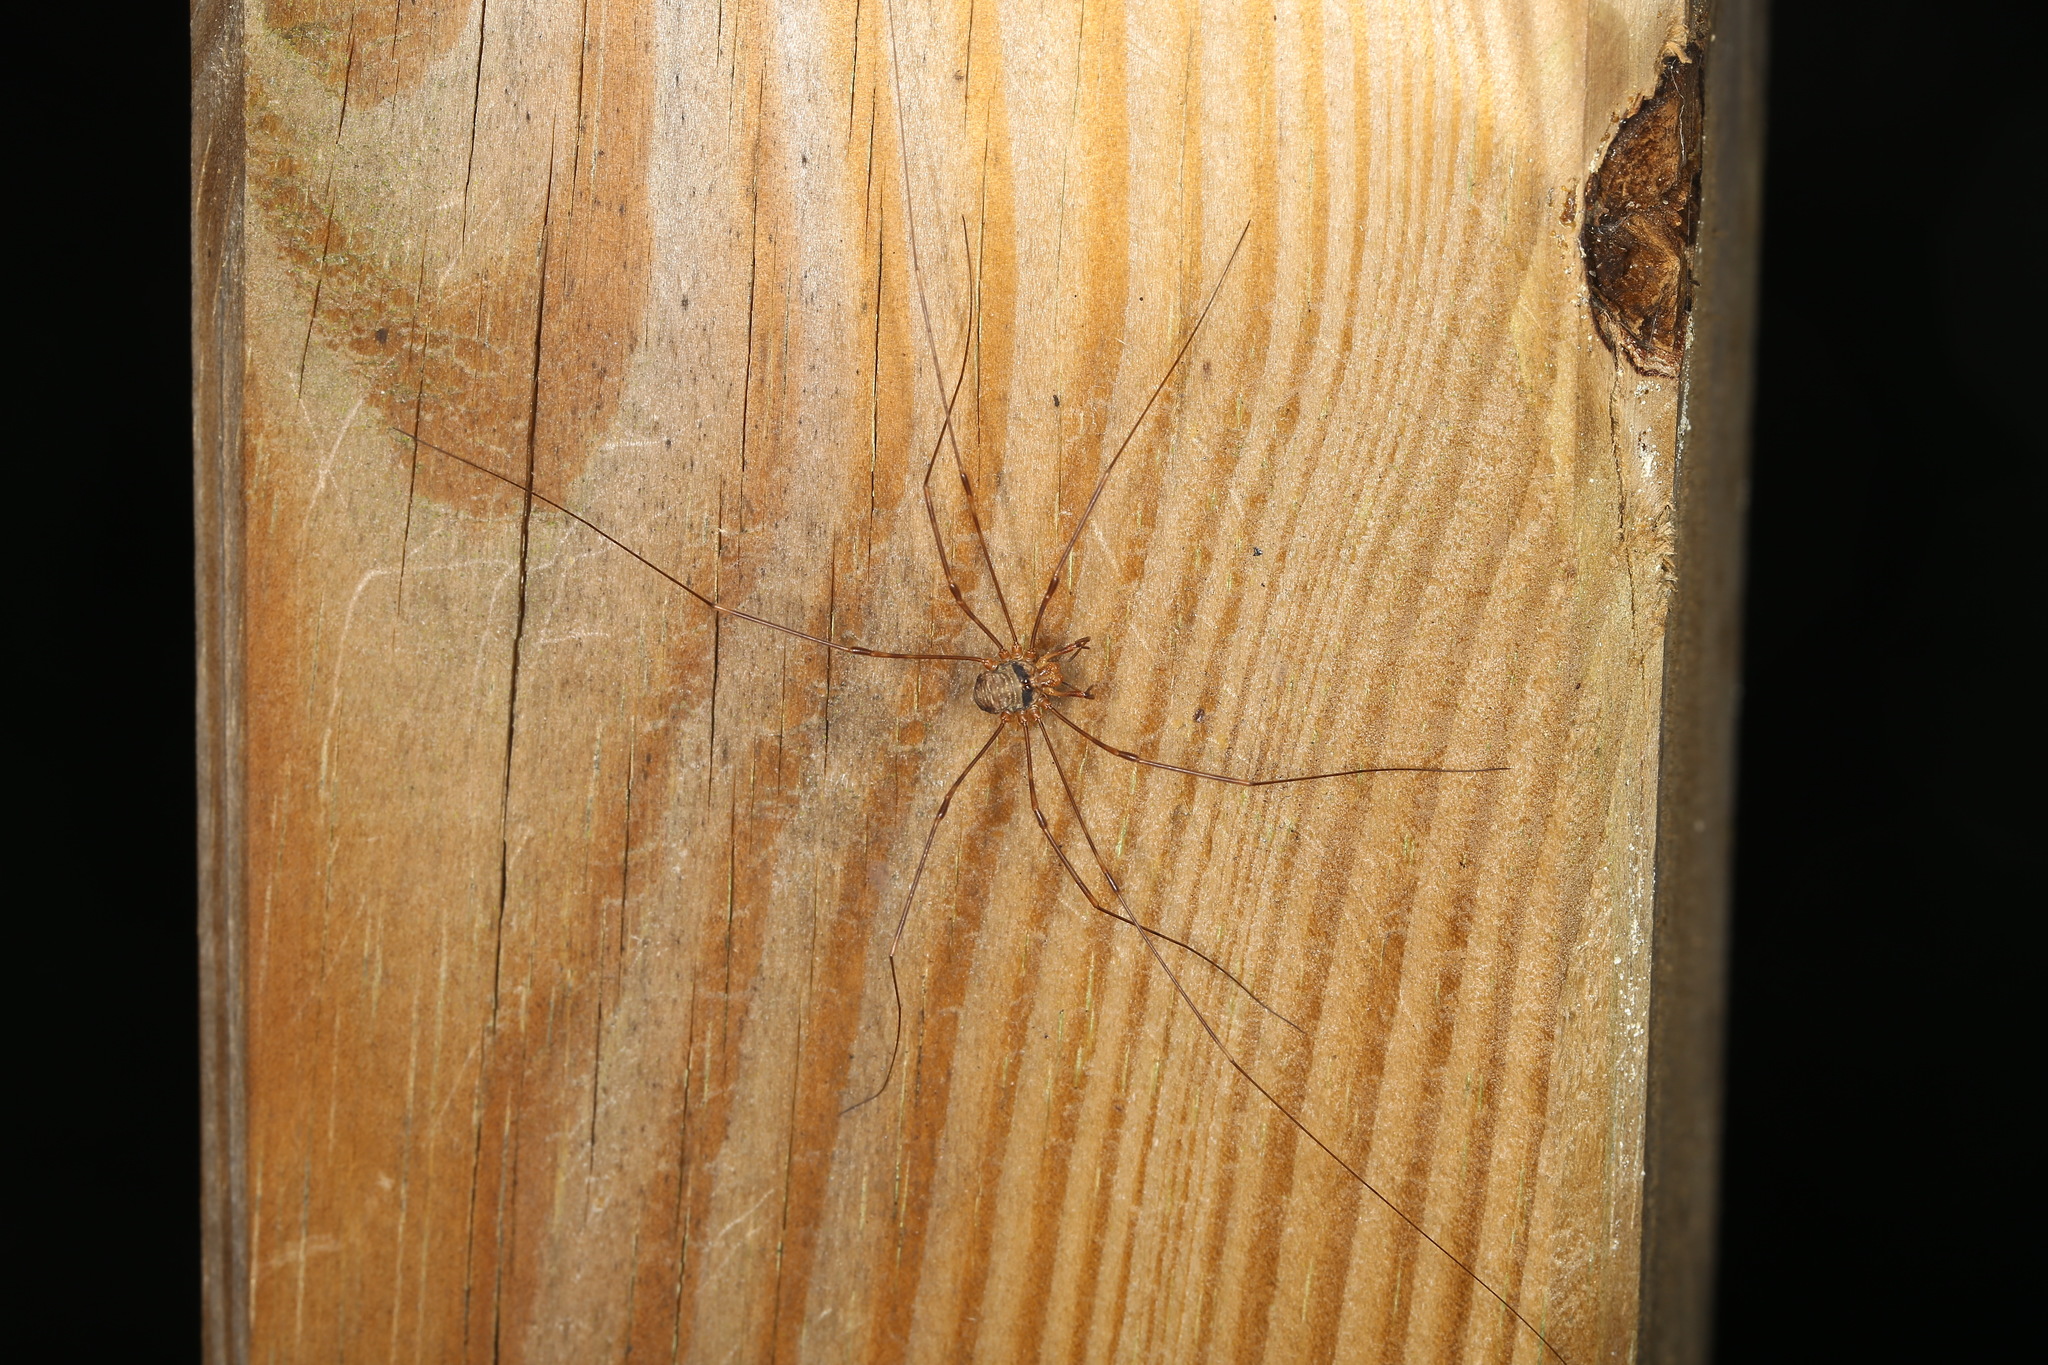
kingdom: Animalia
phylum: Arthropoda
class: Arachnida
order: Opiliones
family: Phalangiidae
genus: Dicranopalpus
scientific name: Dicranopalpus ramosus
